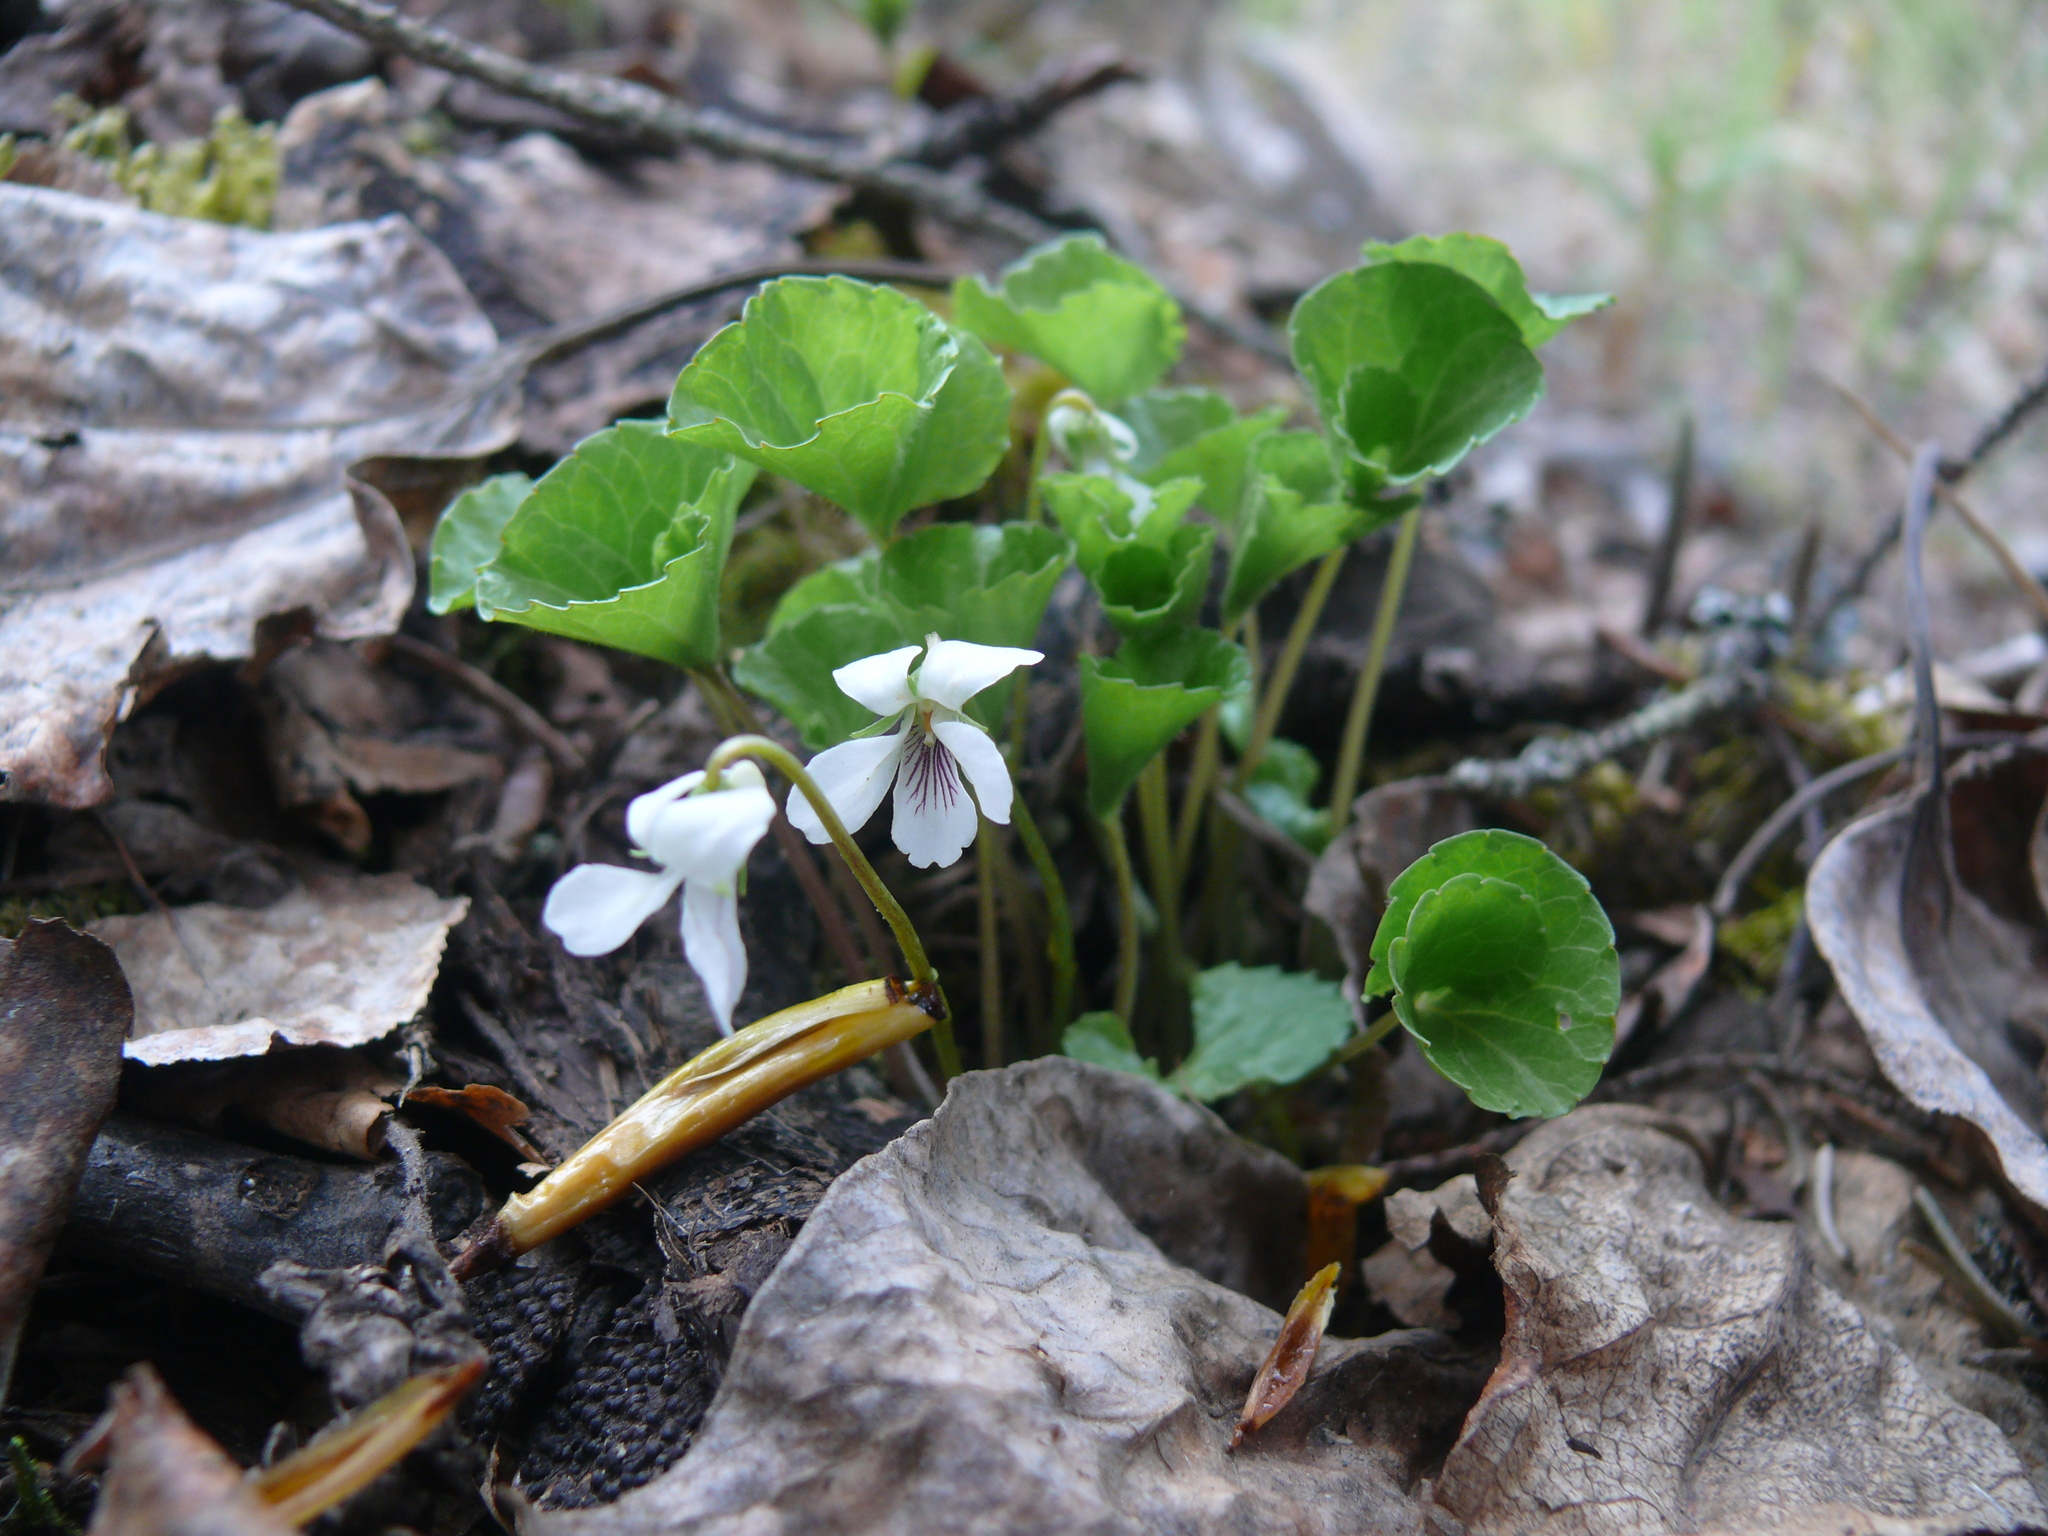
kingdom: Plantae
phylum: Tracheophyta
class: Magnoliopsida
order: Malpighiales
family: Violaceae
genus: Viola
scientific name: Viola renifolia
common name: Kidney-leaf violet
